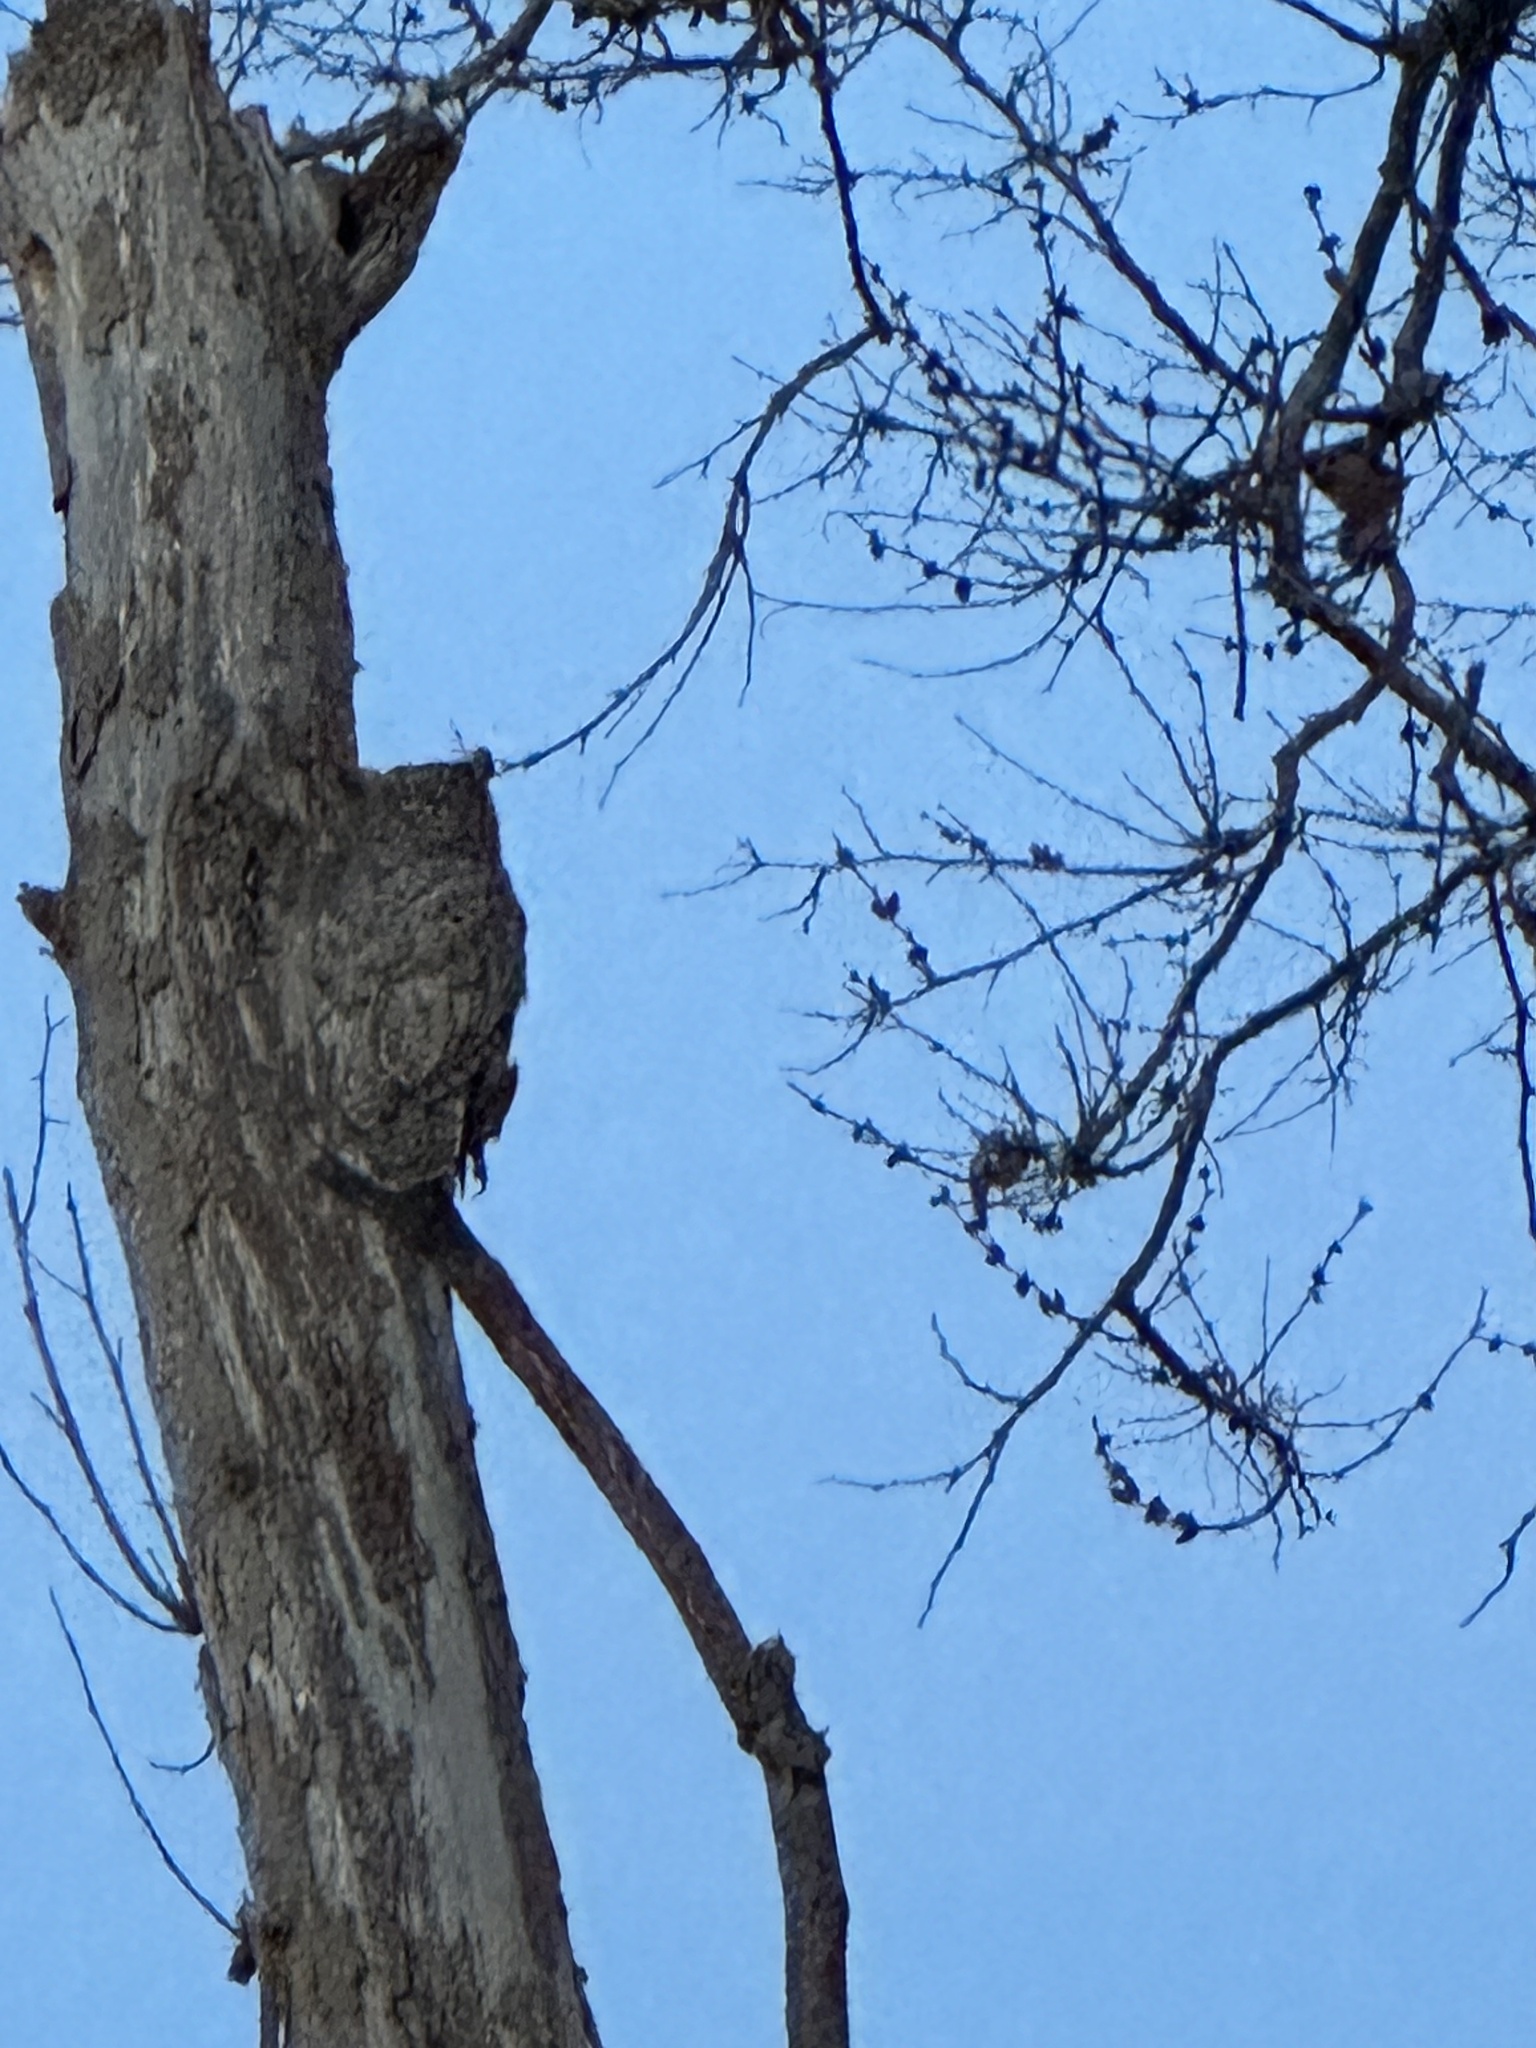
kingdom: Animalia
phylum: Chordata
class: Aves
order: Strigiformes
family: Strigidae
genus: Bubo
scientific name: Bubo virginianus
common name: Great horned owl
